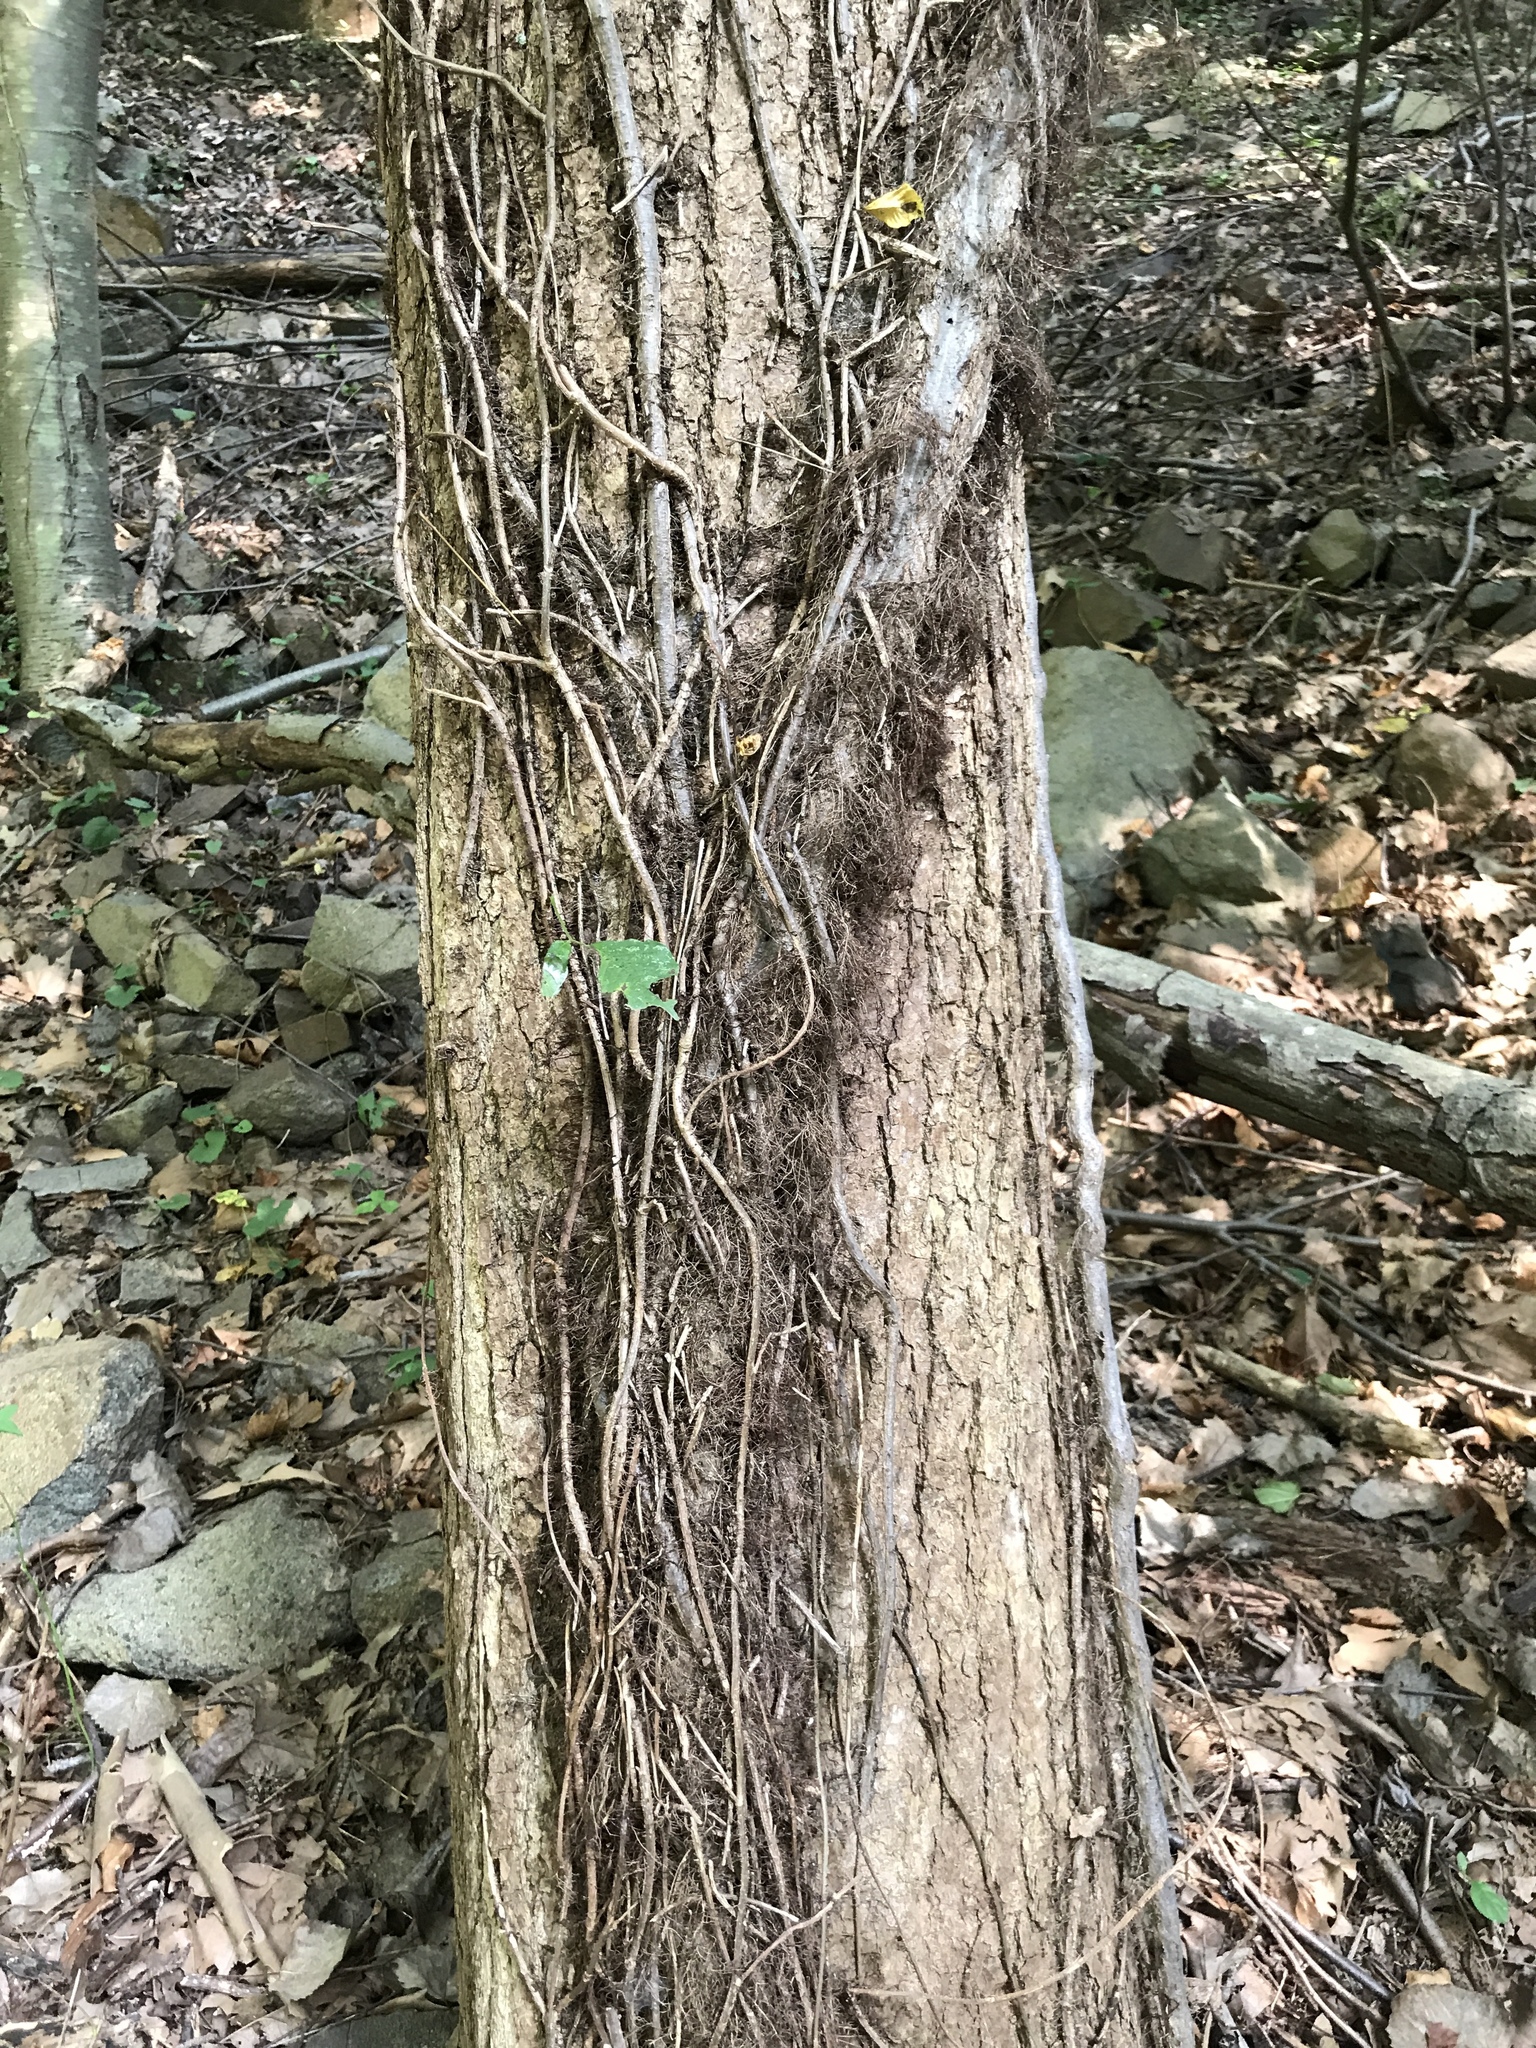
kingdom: Plantae
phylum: Tracheophyta
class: Magnoliopsida
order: Sapindales
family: Anacardiaceae
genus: Toxicodendron
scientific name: Toxicodendron radicans
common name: Poison ivy
